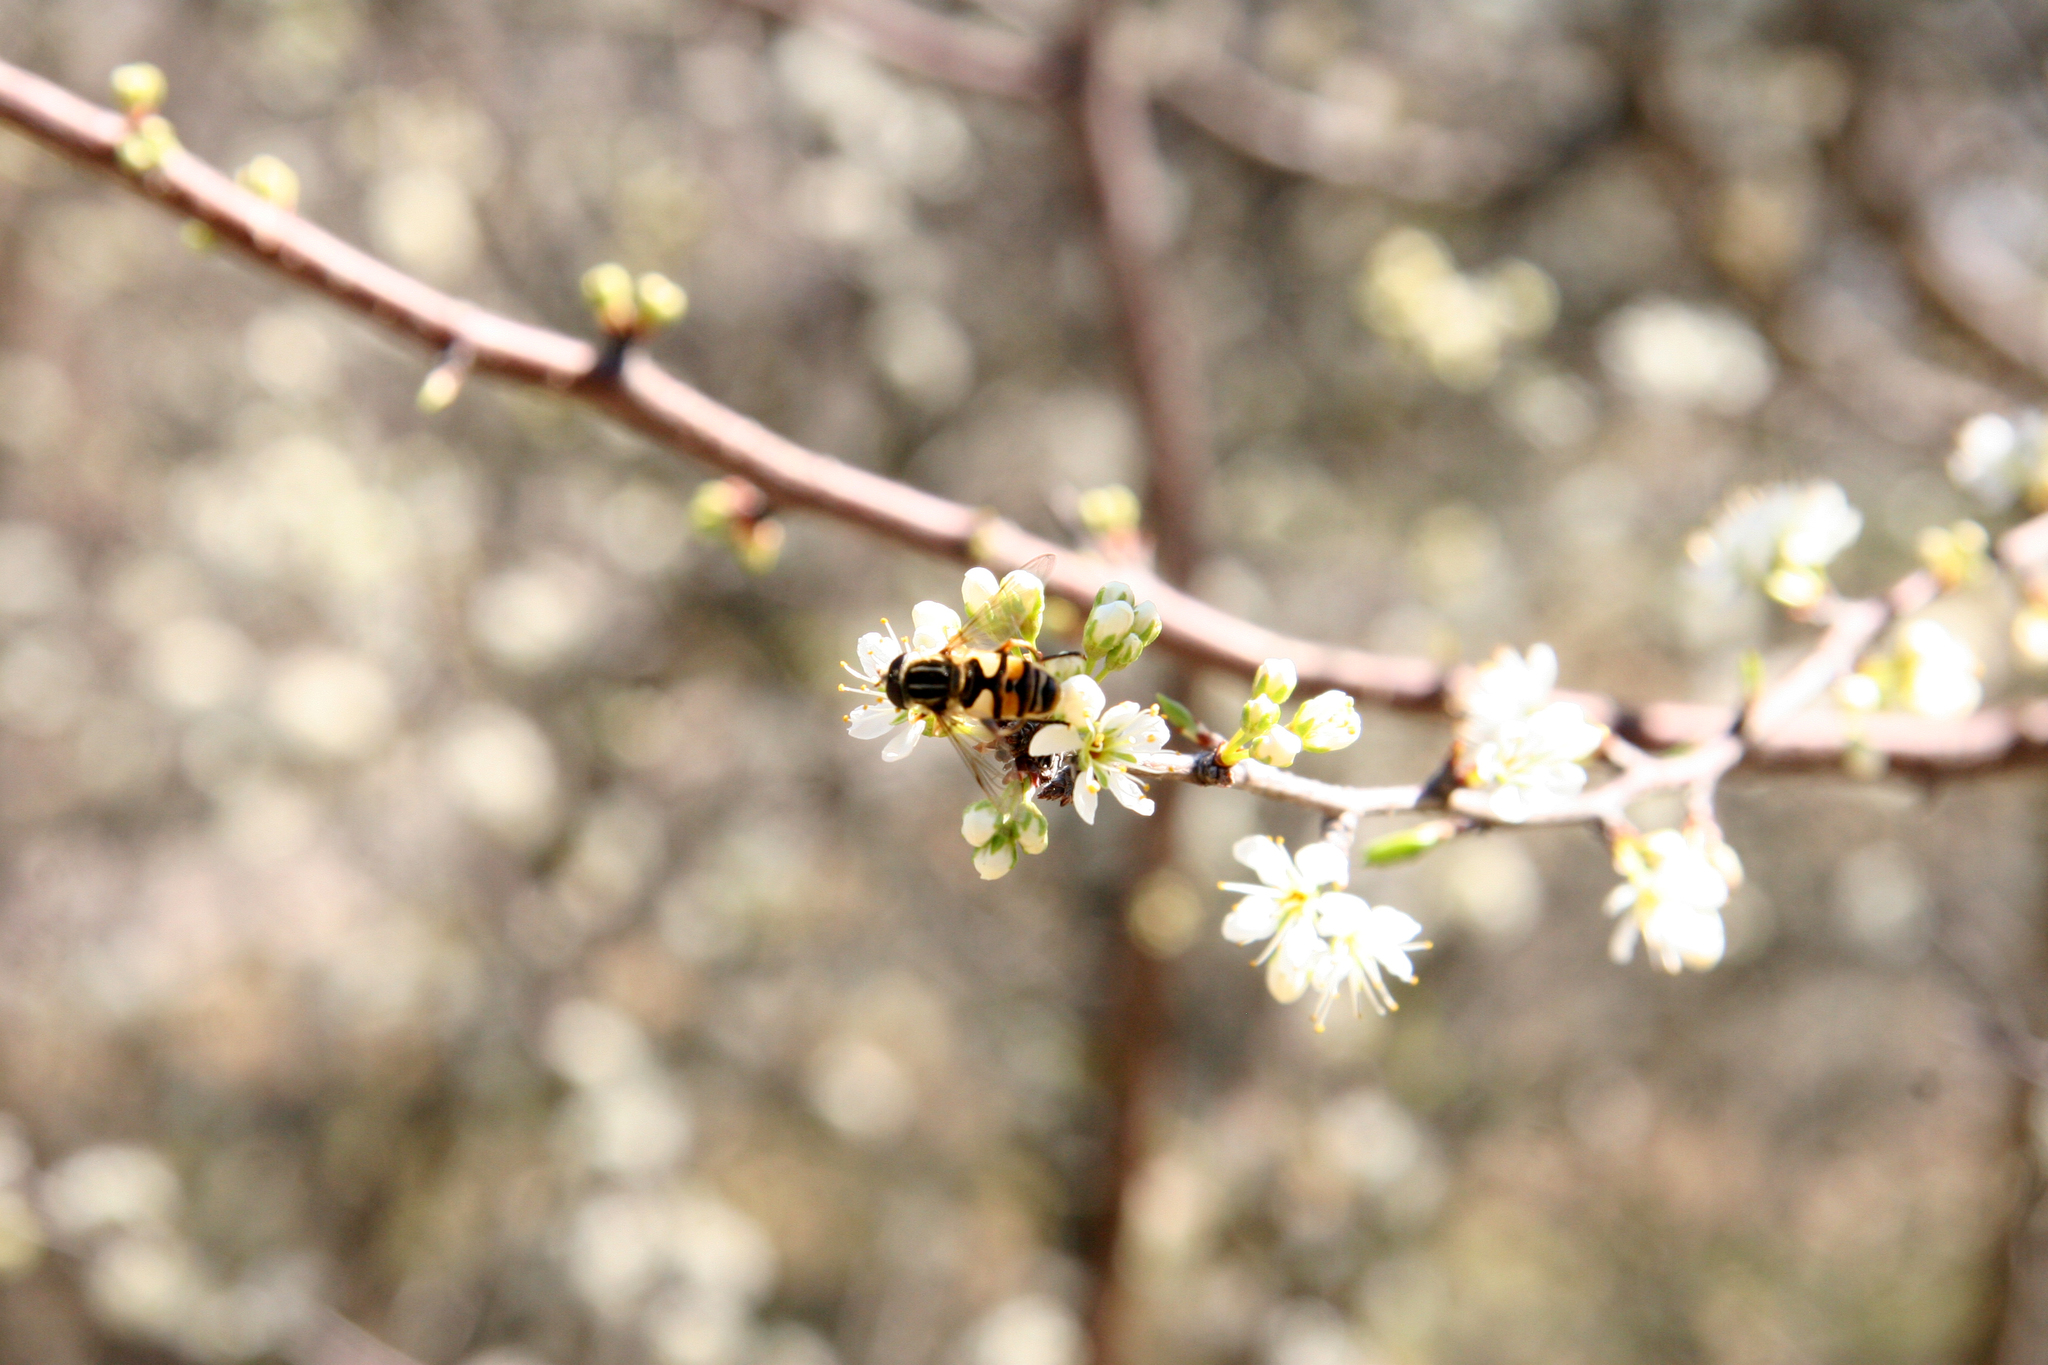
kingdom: Animalia
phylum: Arthropoda
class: Insecta
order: Diptera
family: Syrphidae
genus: Helophilus
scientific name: Helophilus fasciatus
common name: Narrow-headed marsh fly
